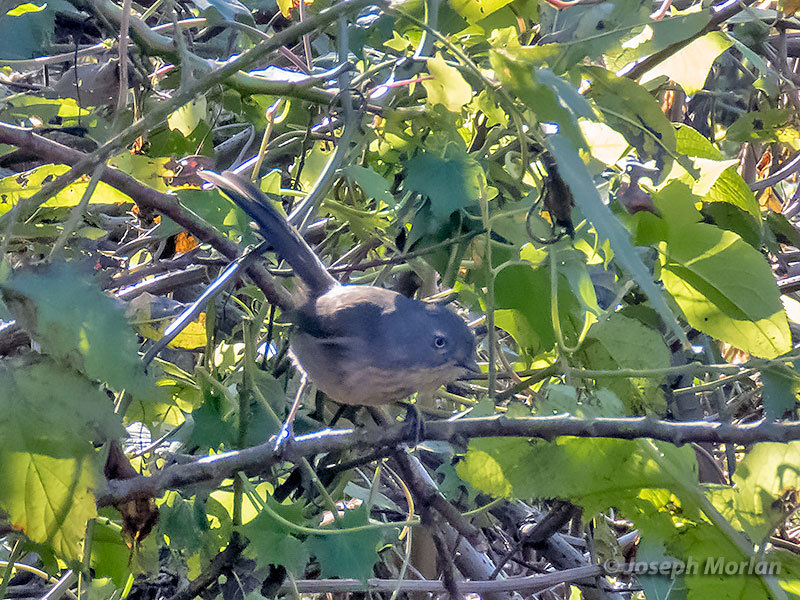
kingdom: Animalia
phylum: Chordata
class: Aves
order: Passeriformes
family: Sylviidae
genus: Chamaea
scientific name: Chamaea fasciata
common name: Wrentit
